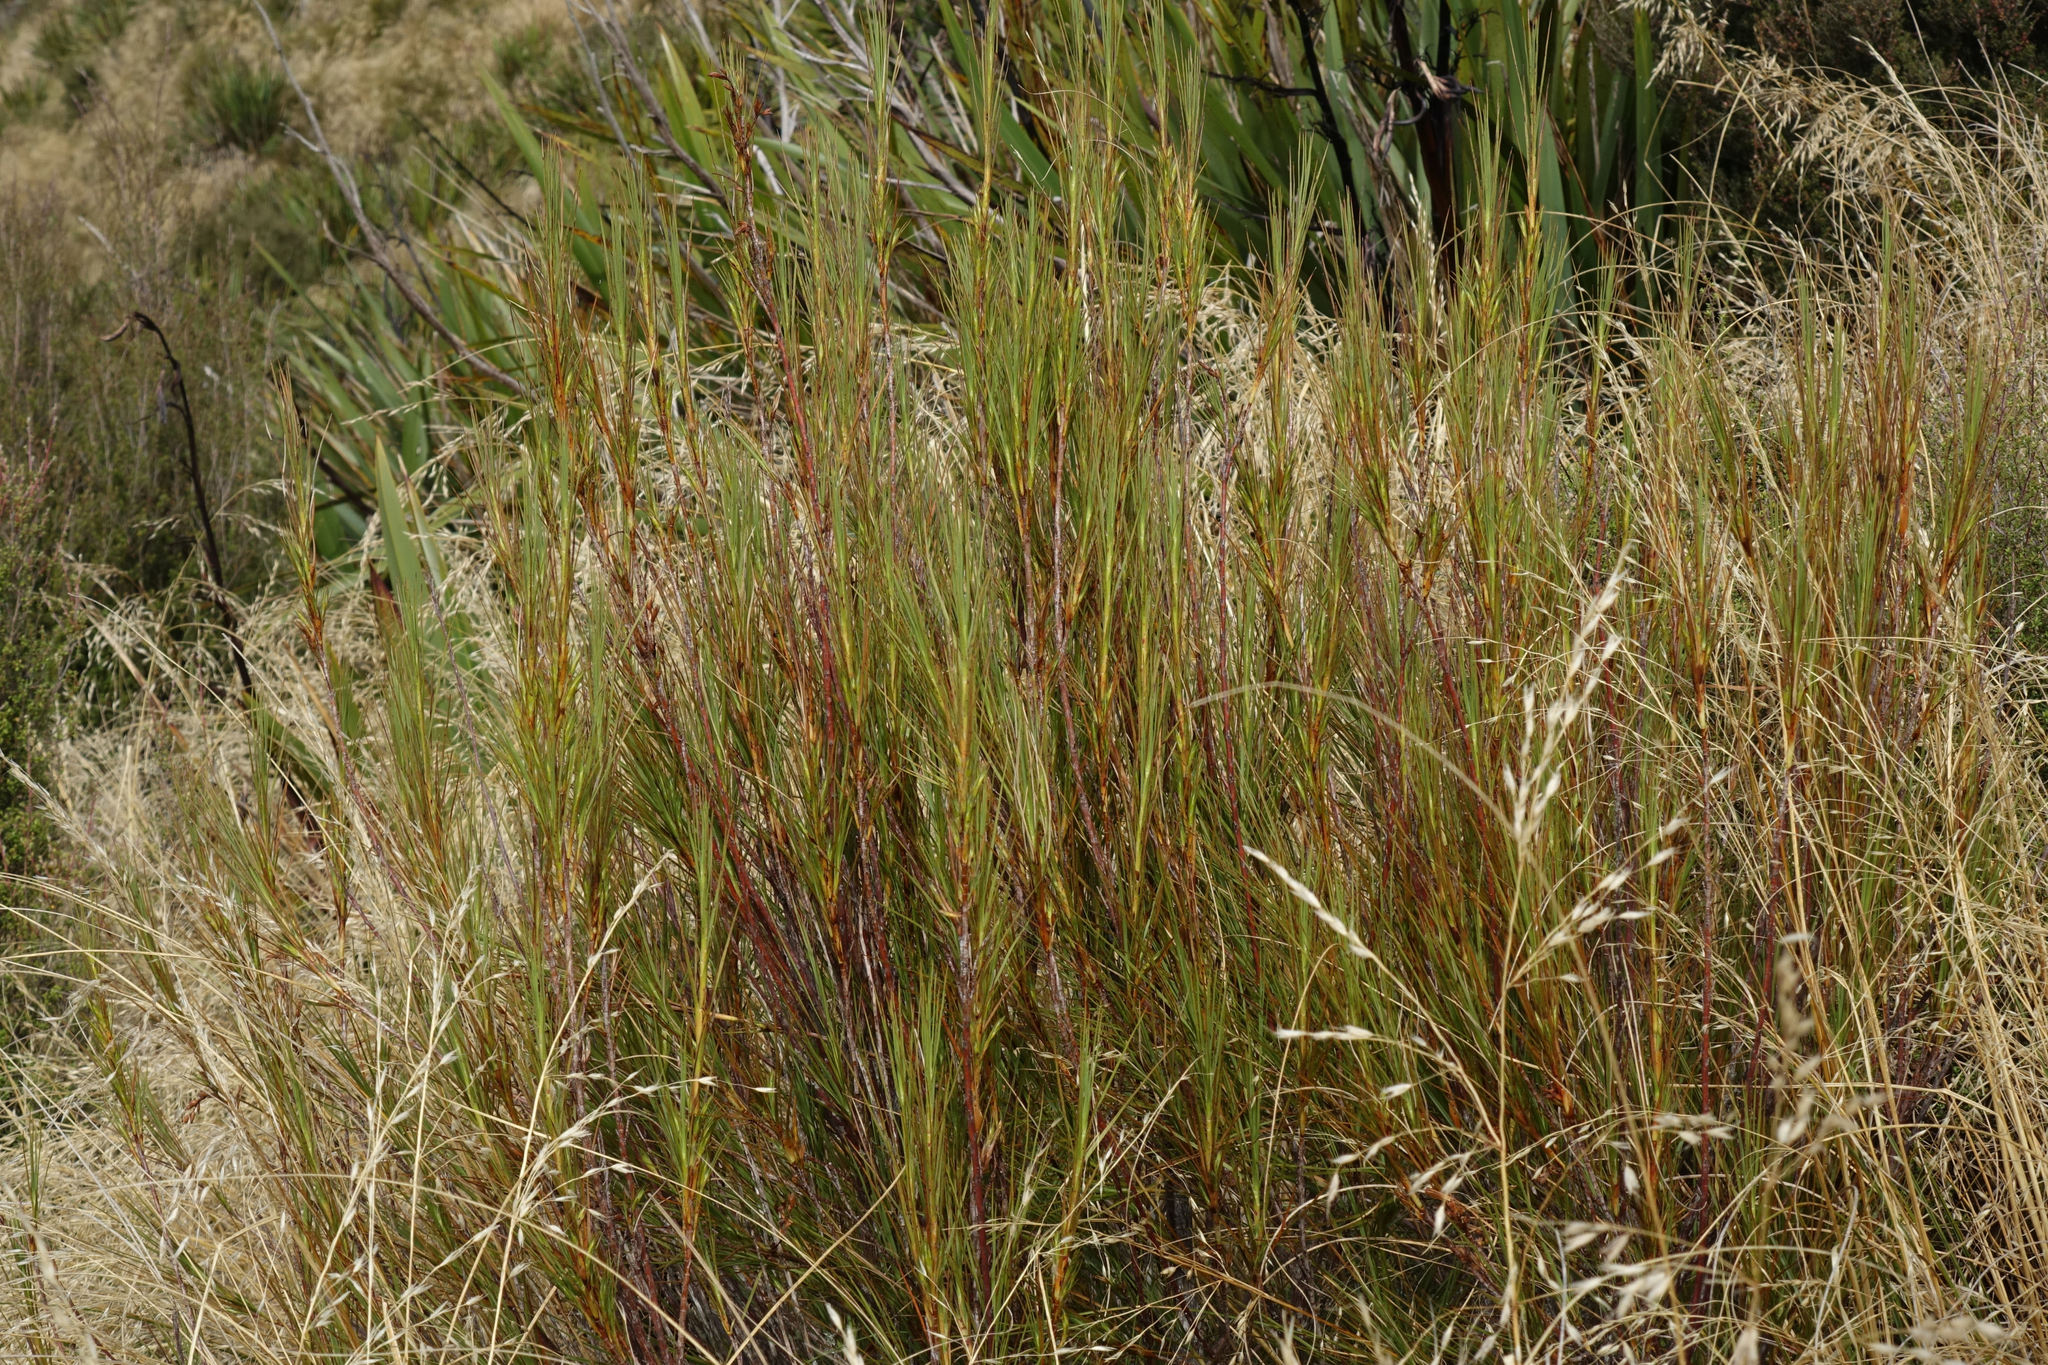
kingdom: Plantae
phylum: Tracheophyta
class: Magnoliopsida
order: Ericales
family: Ericaceae
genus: Dracophyllum
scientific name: Dracophyllum longifolium
